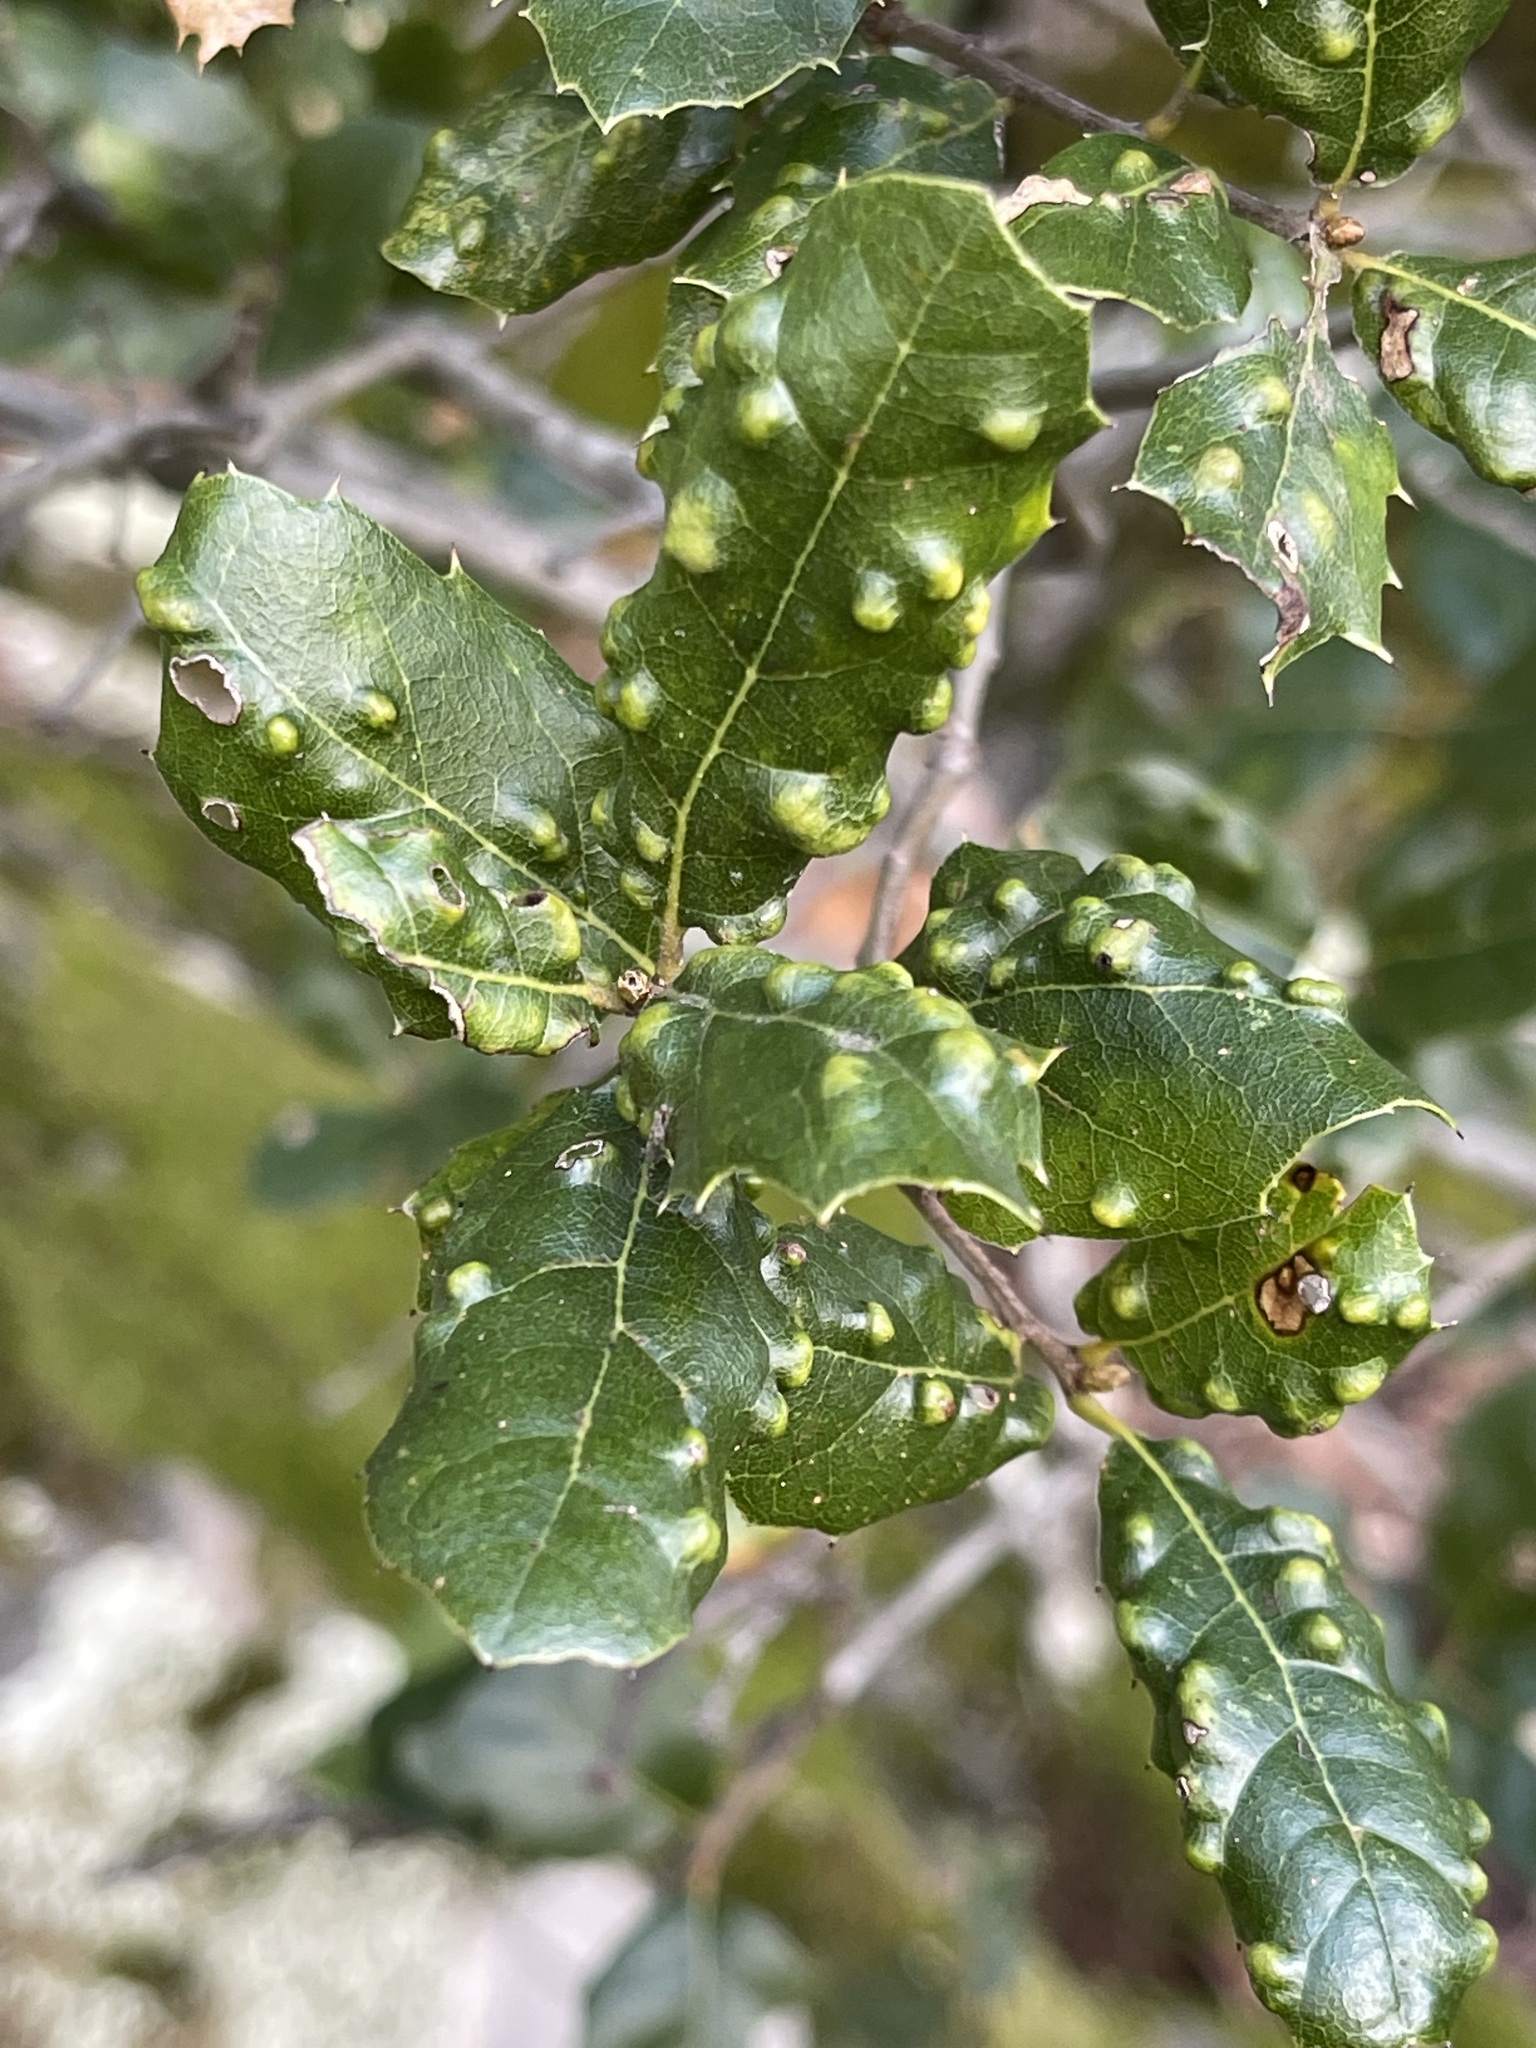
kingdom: Animalia
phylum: Arthropoda
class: Arachnida
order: Trombidiformes
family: Eriophyidae
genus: Aceria
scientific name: Aceria
